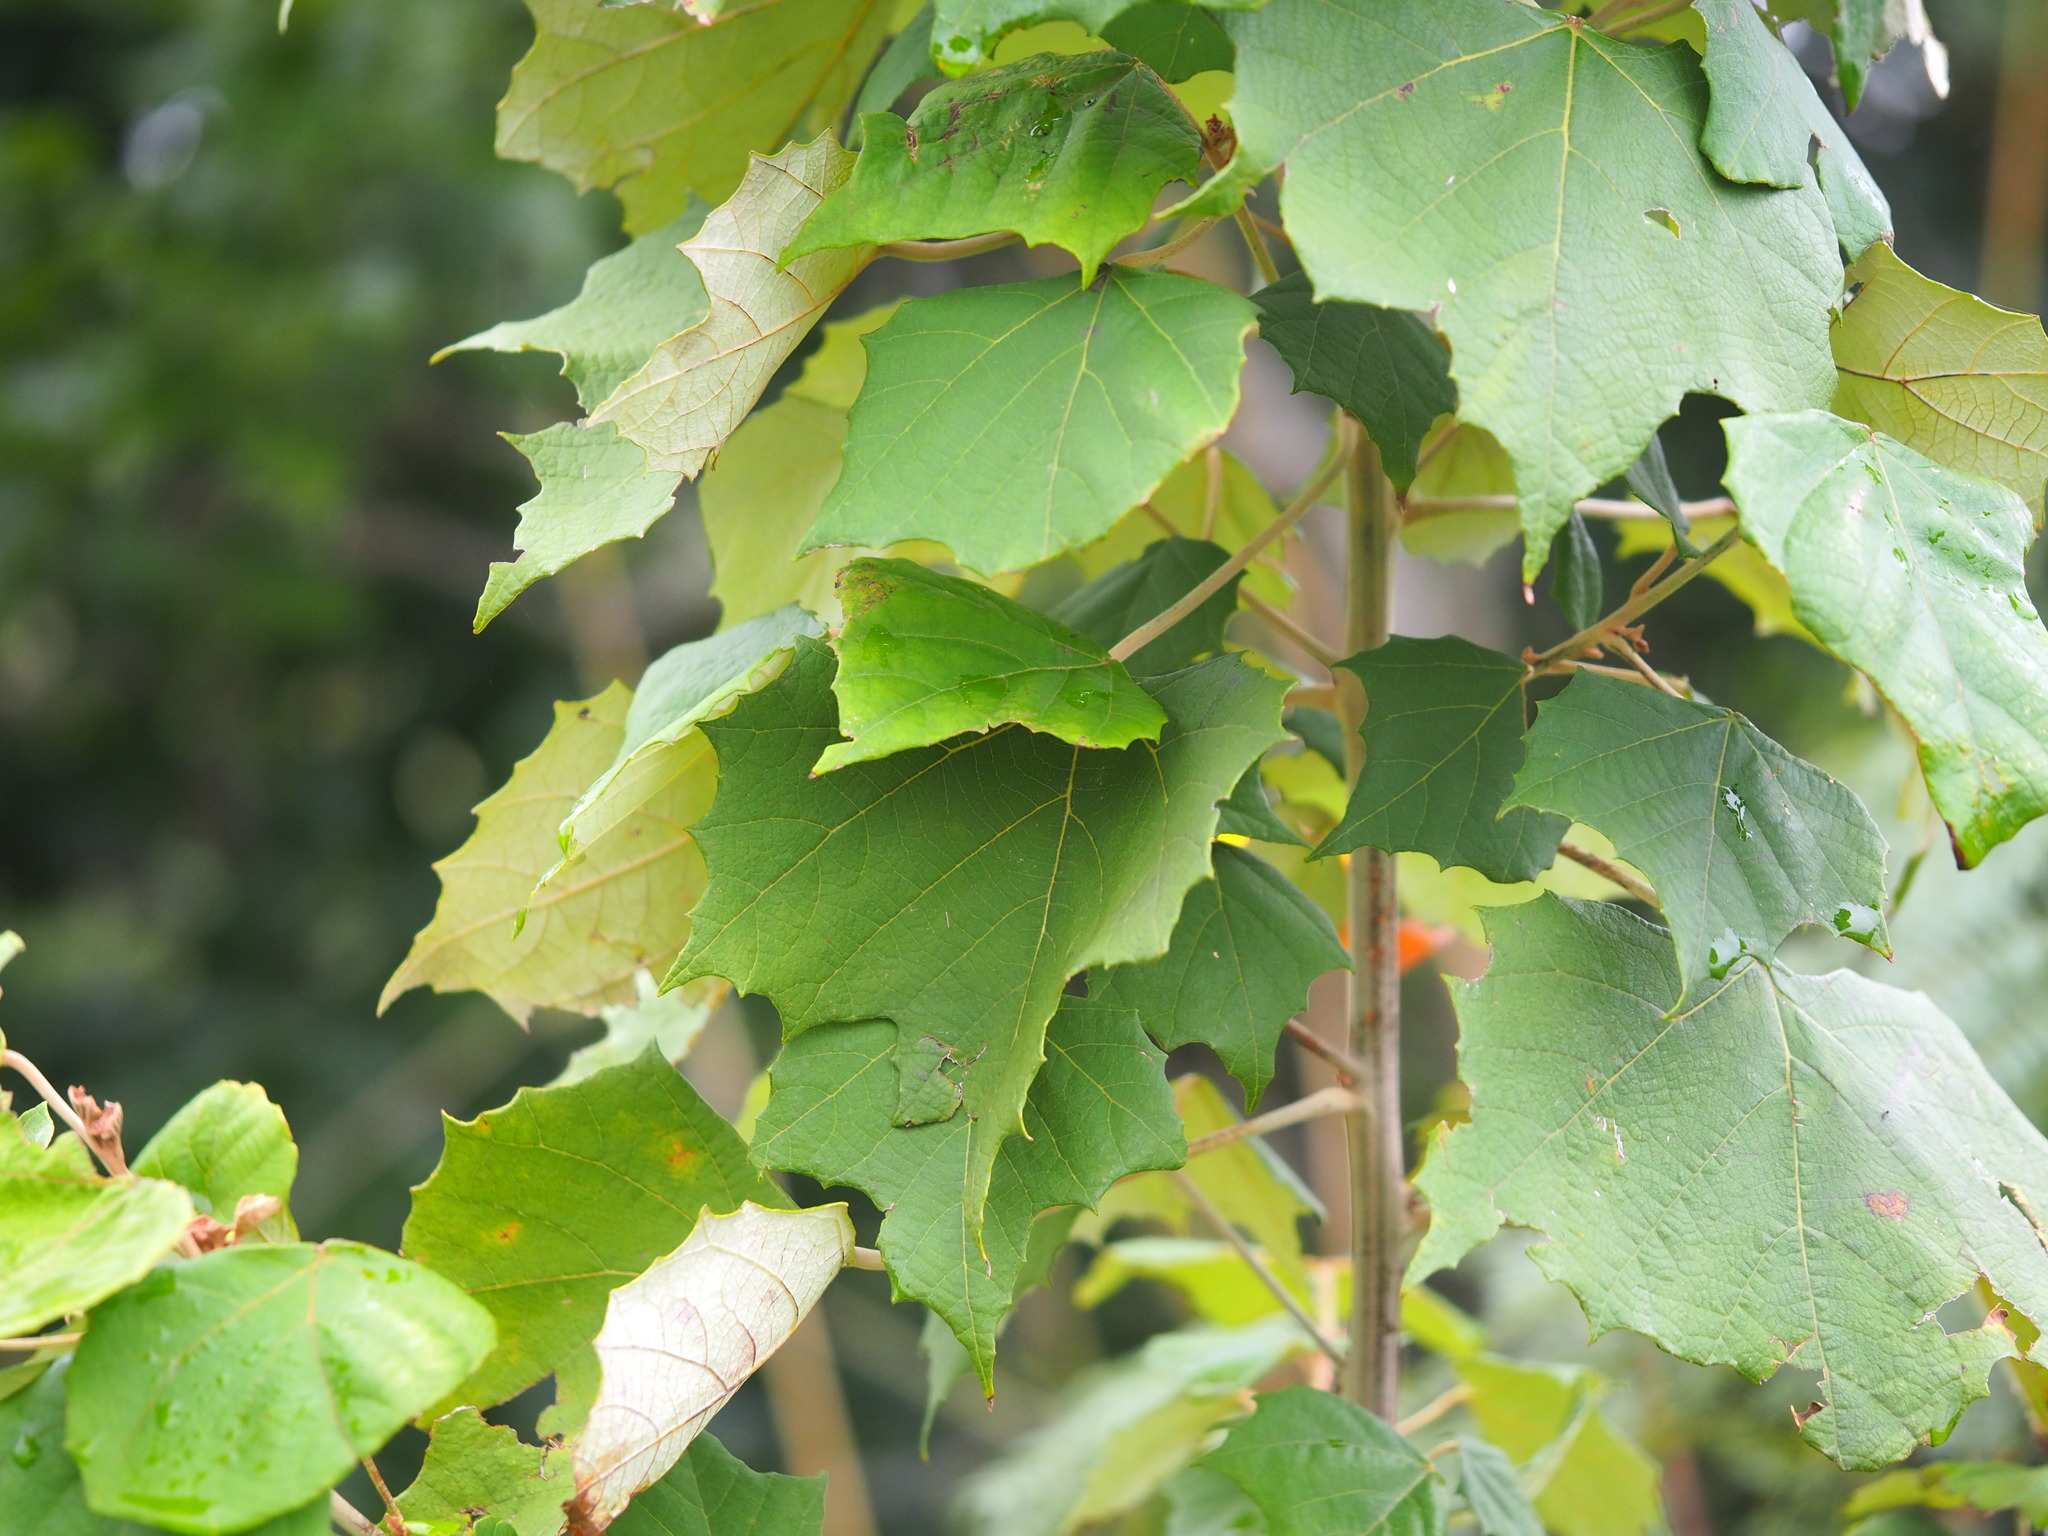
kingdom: Plantae
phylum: Tracheophyta
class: Magnoliopsida
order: Malpighiales
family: Euphorbiaceae
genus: Mallotus
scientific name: Mallotus paniculatus
